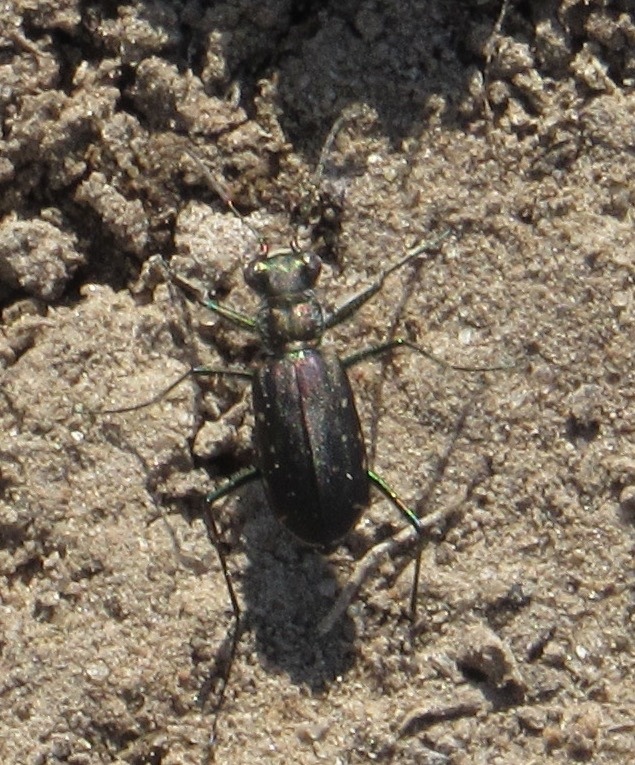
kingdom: Animalia
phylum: Arthropoda
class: Insecta
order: Coleoptera
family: Carabidae
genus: Cicindela
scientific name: Cicindela punctulata
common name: Punctured tiger beetle
